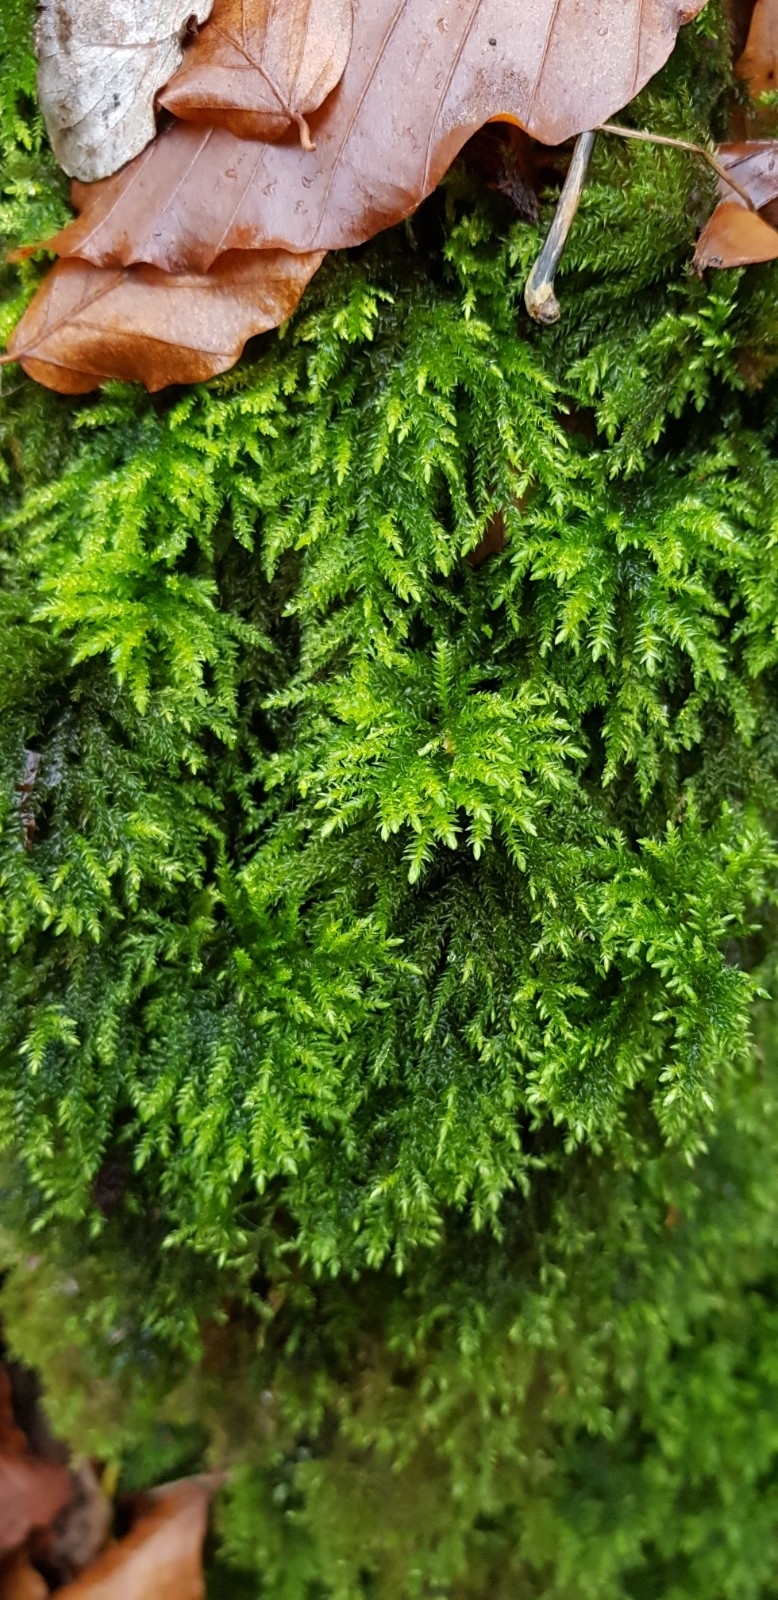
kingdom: Plantae
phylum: Bryophyta
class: Bryopsida
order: Hypnales
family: Neckeraceae
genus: Thamnobryum
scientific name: Thamnobryum alopecurum
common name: Fox-tail feather-moss
